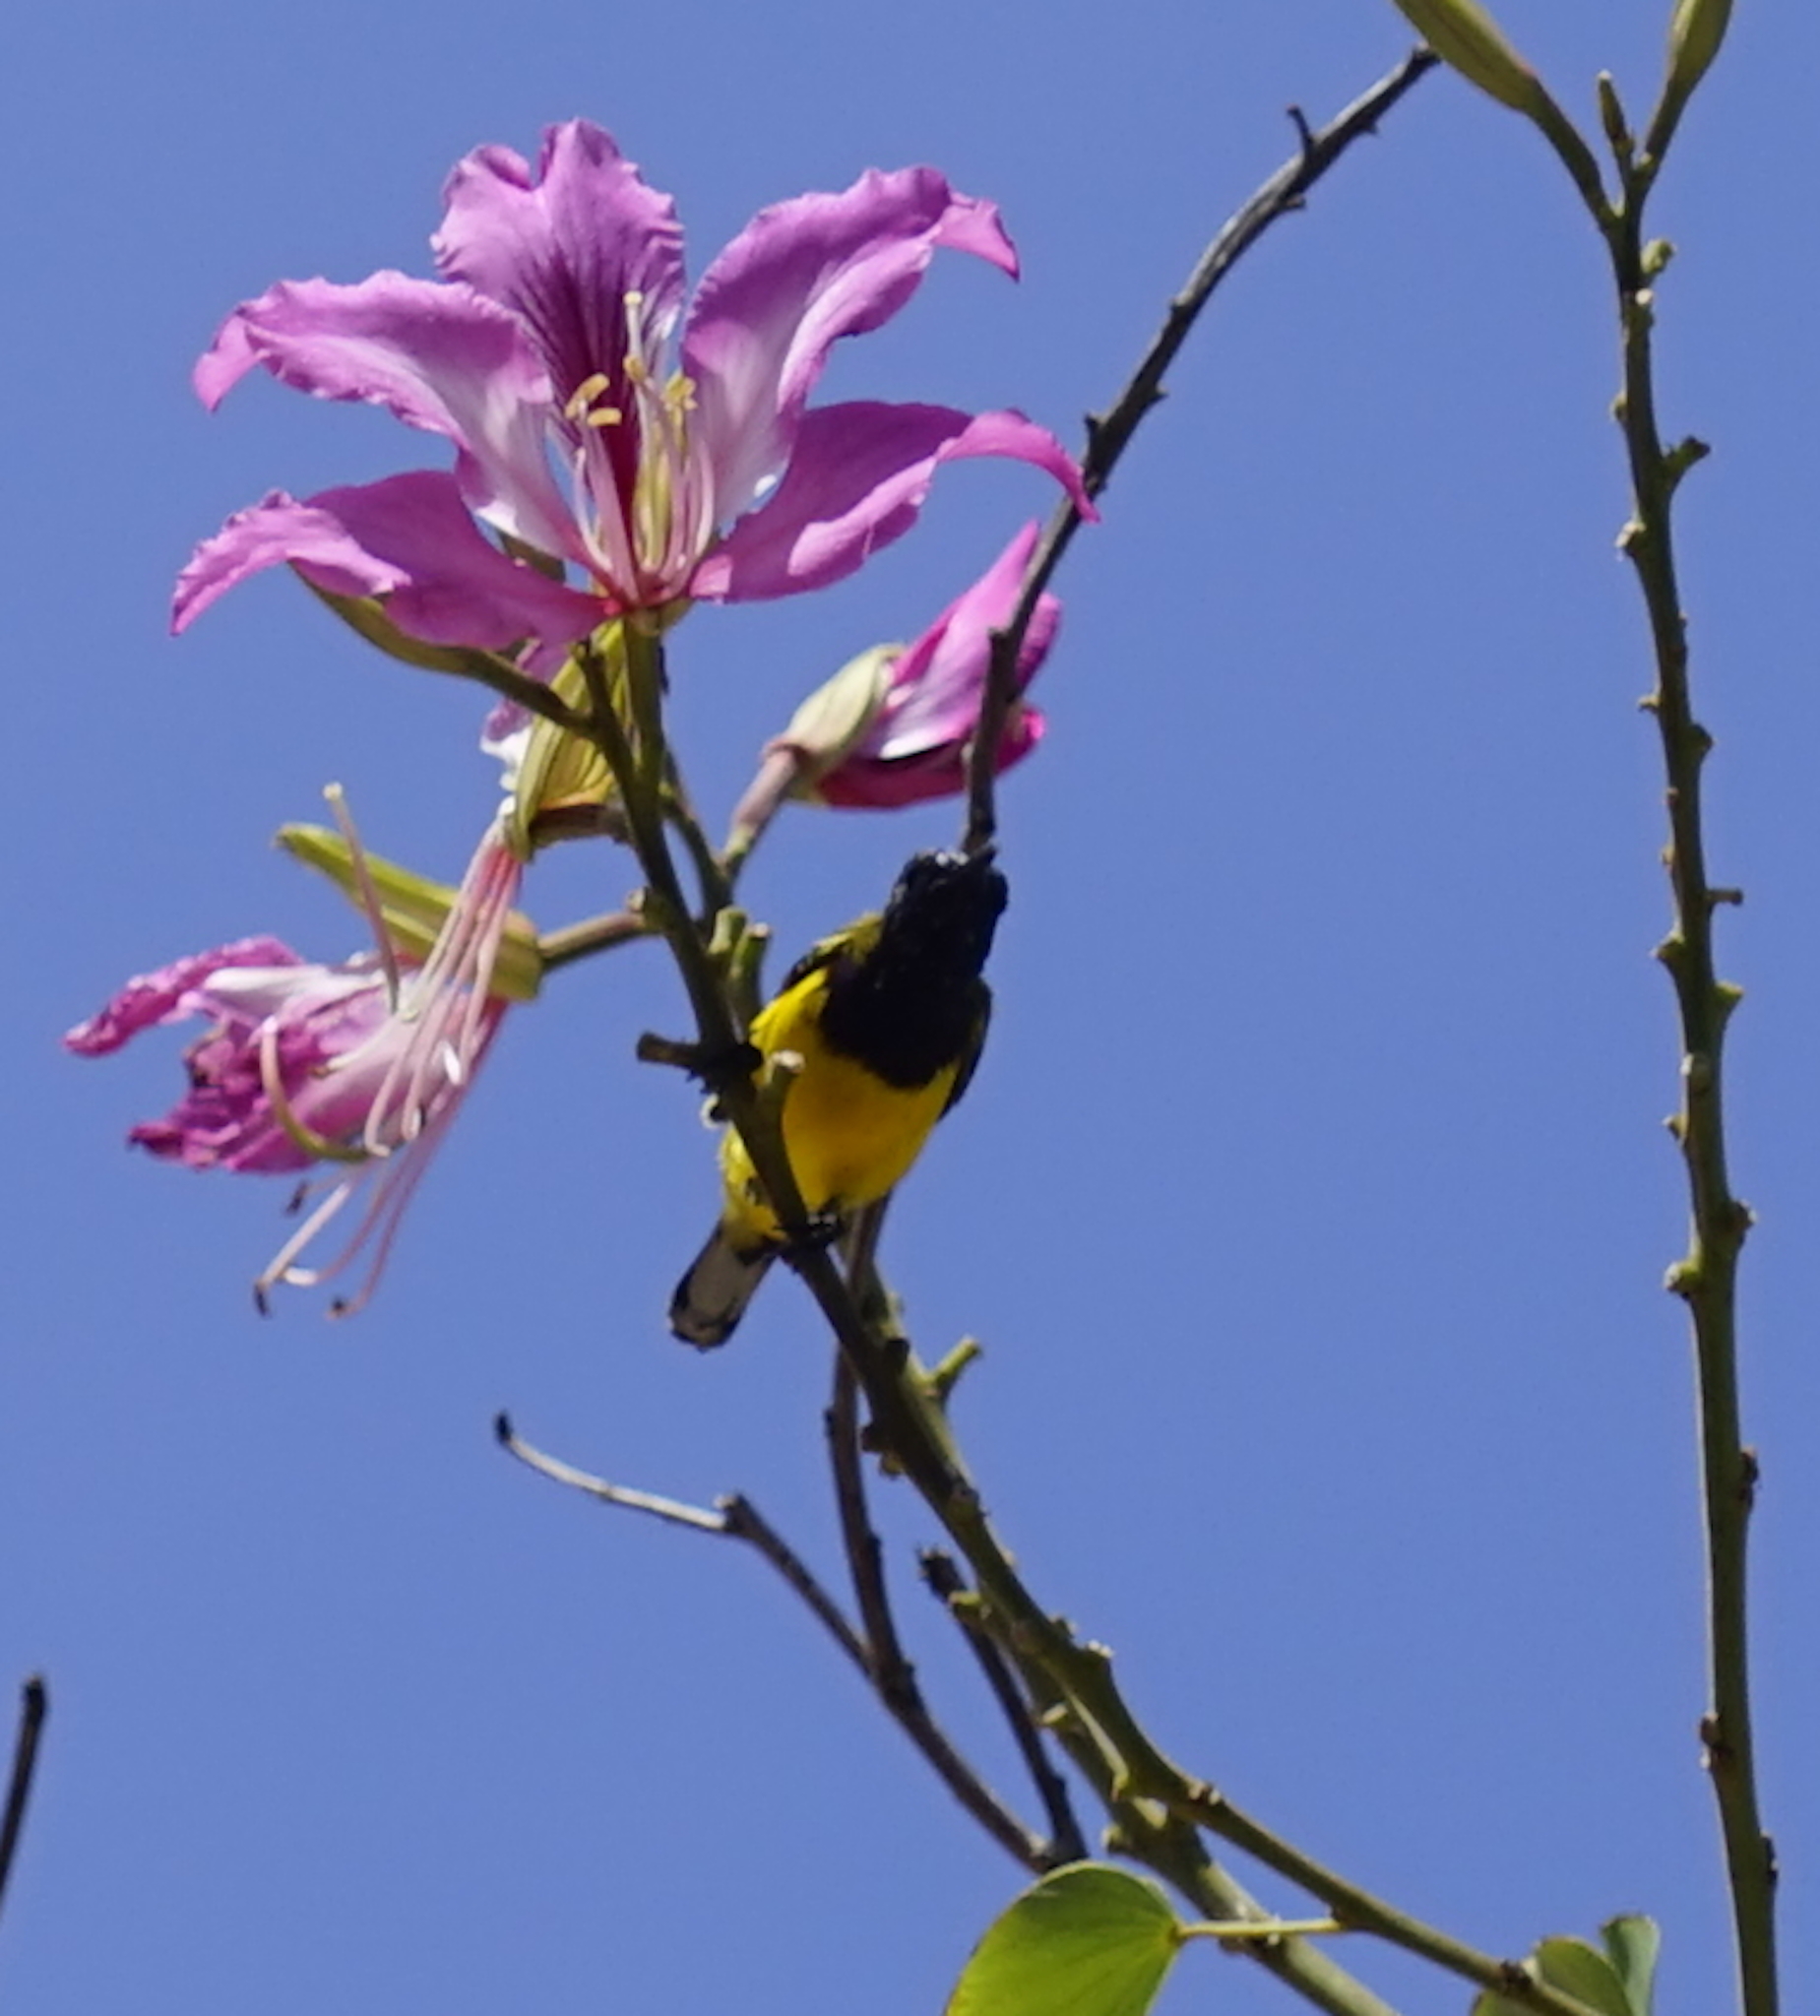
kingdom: Animalia
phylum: Chordata
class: Aves
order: Passeriformes
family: Nectariniidae
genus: Cinnyris
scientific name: Cinnyris
